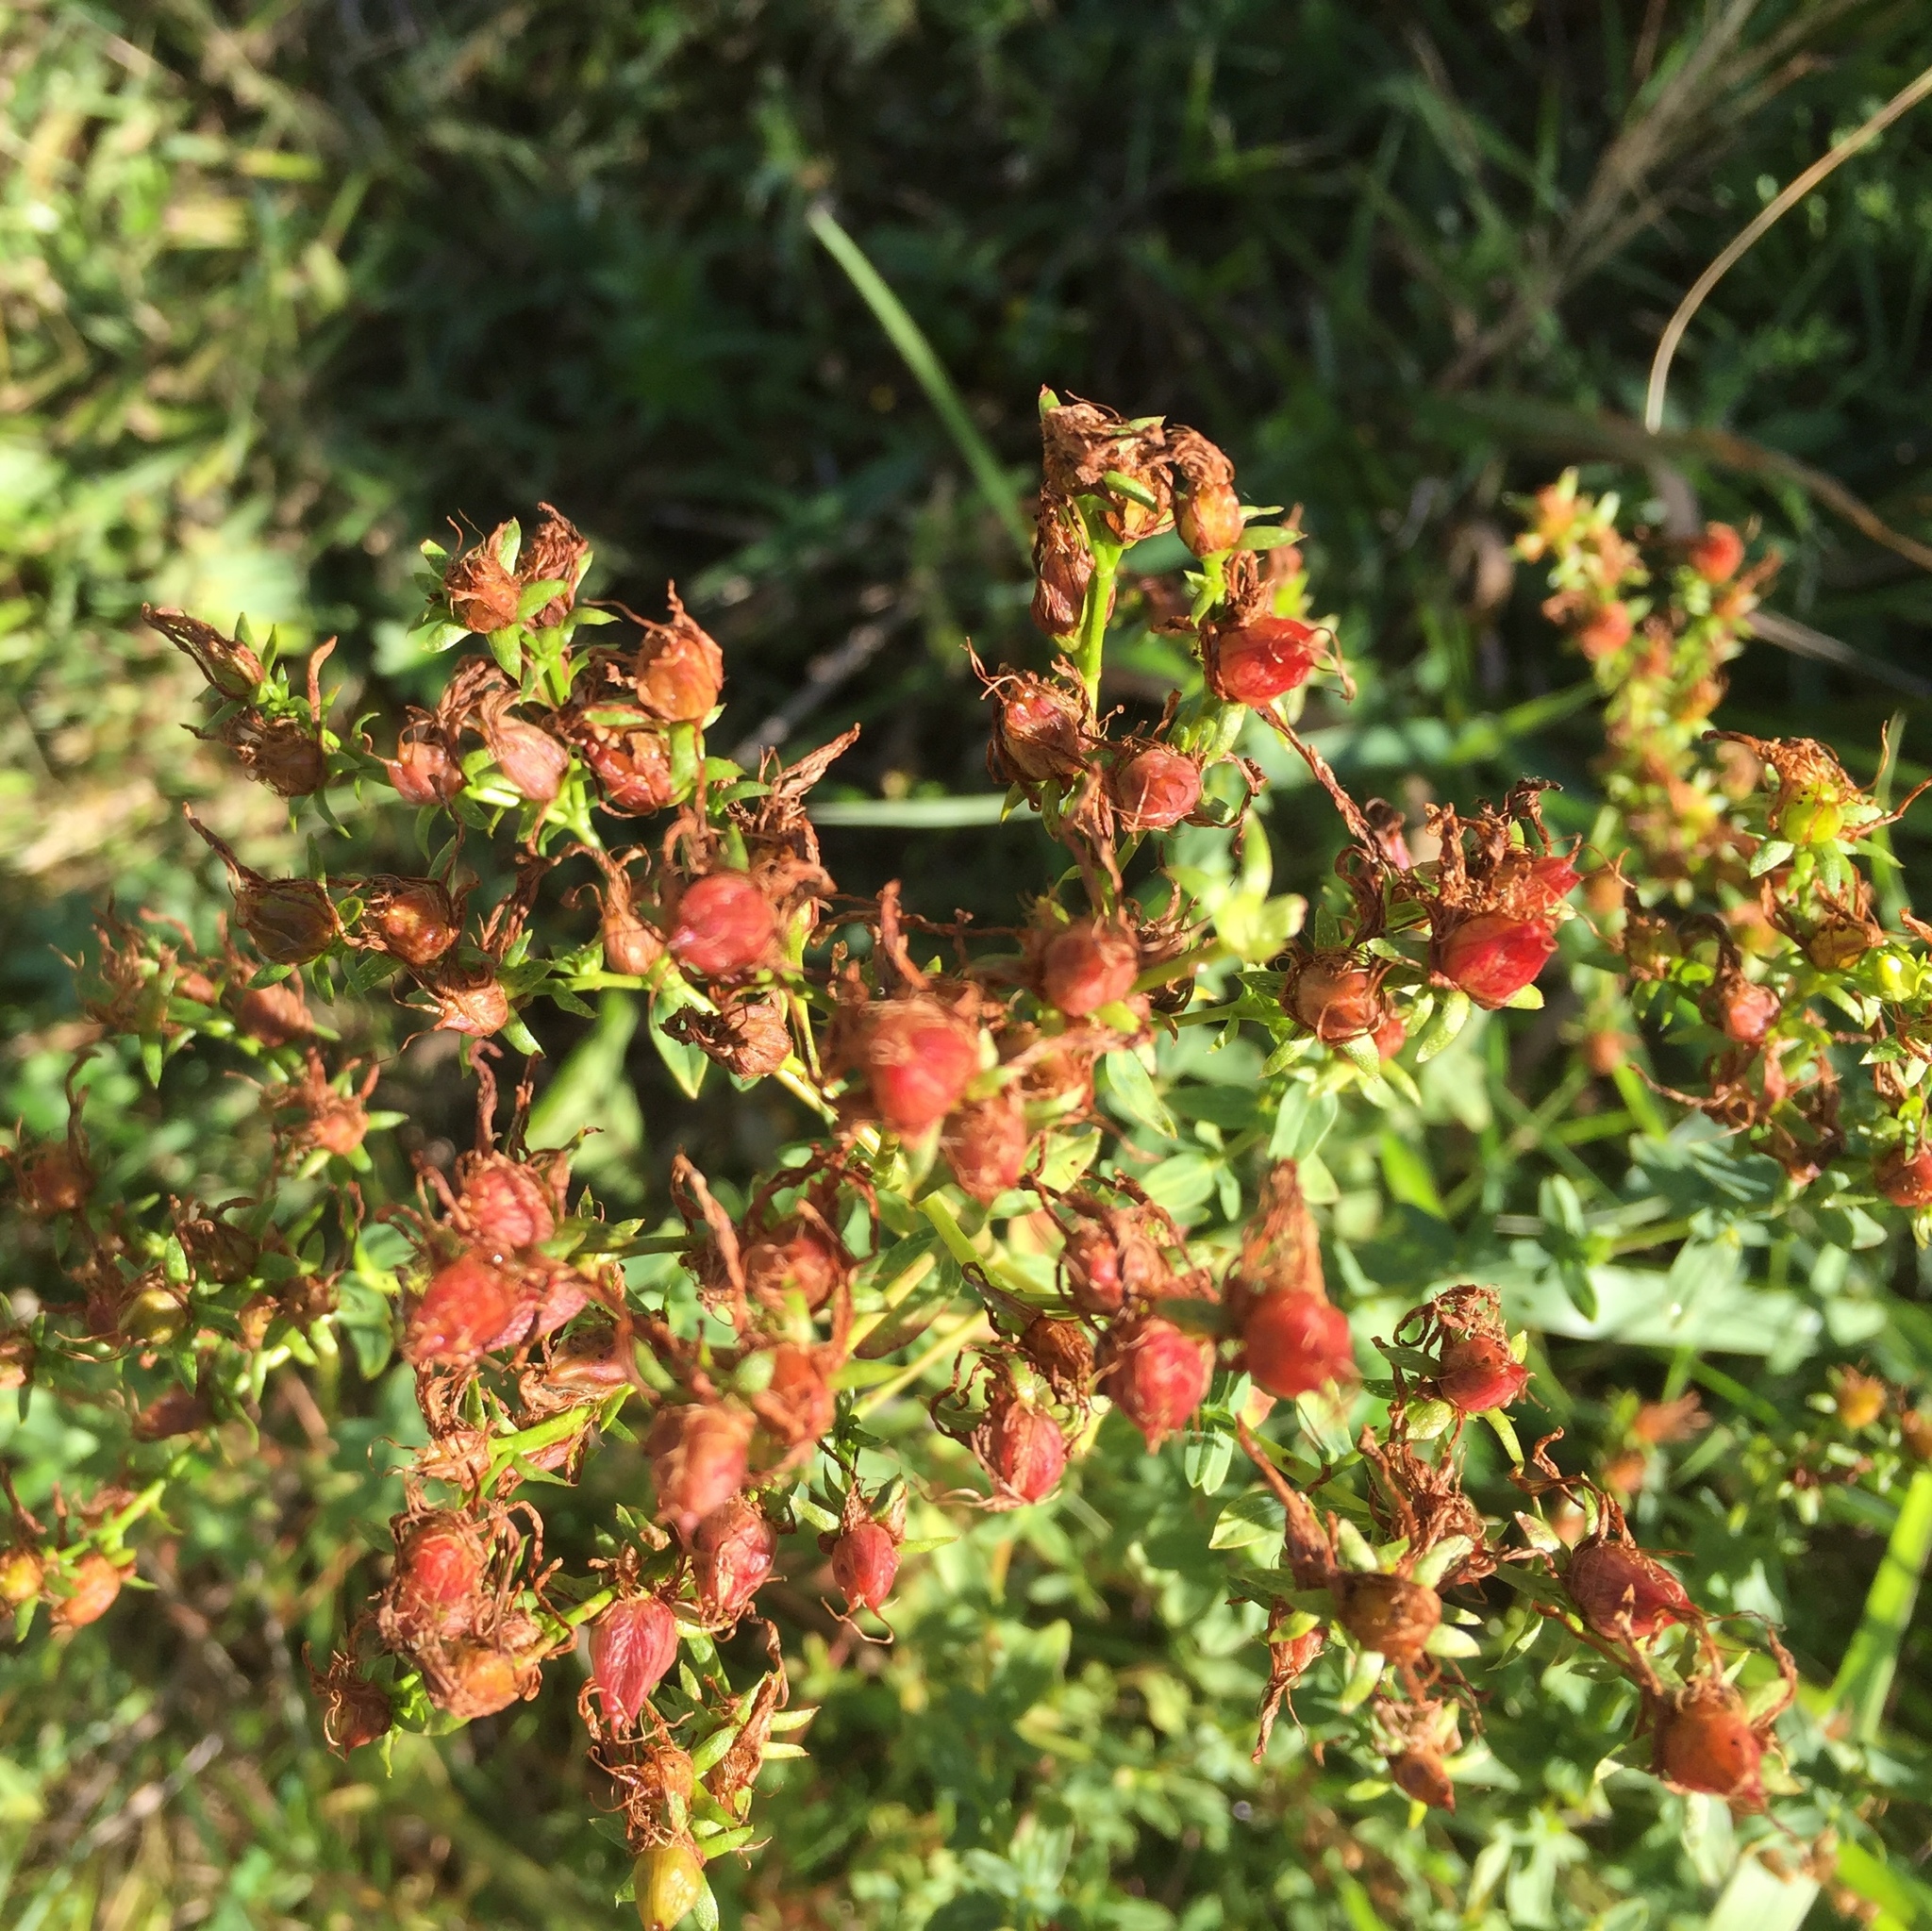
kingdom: Plantae
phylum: Tracheophyta
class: Magnoliopsida
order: Malpighiales
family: Hypericaceae
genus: Hypericum
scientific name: Hypericum perforatum
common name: Common st. johnswort
